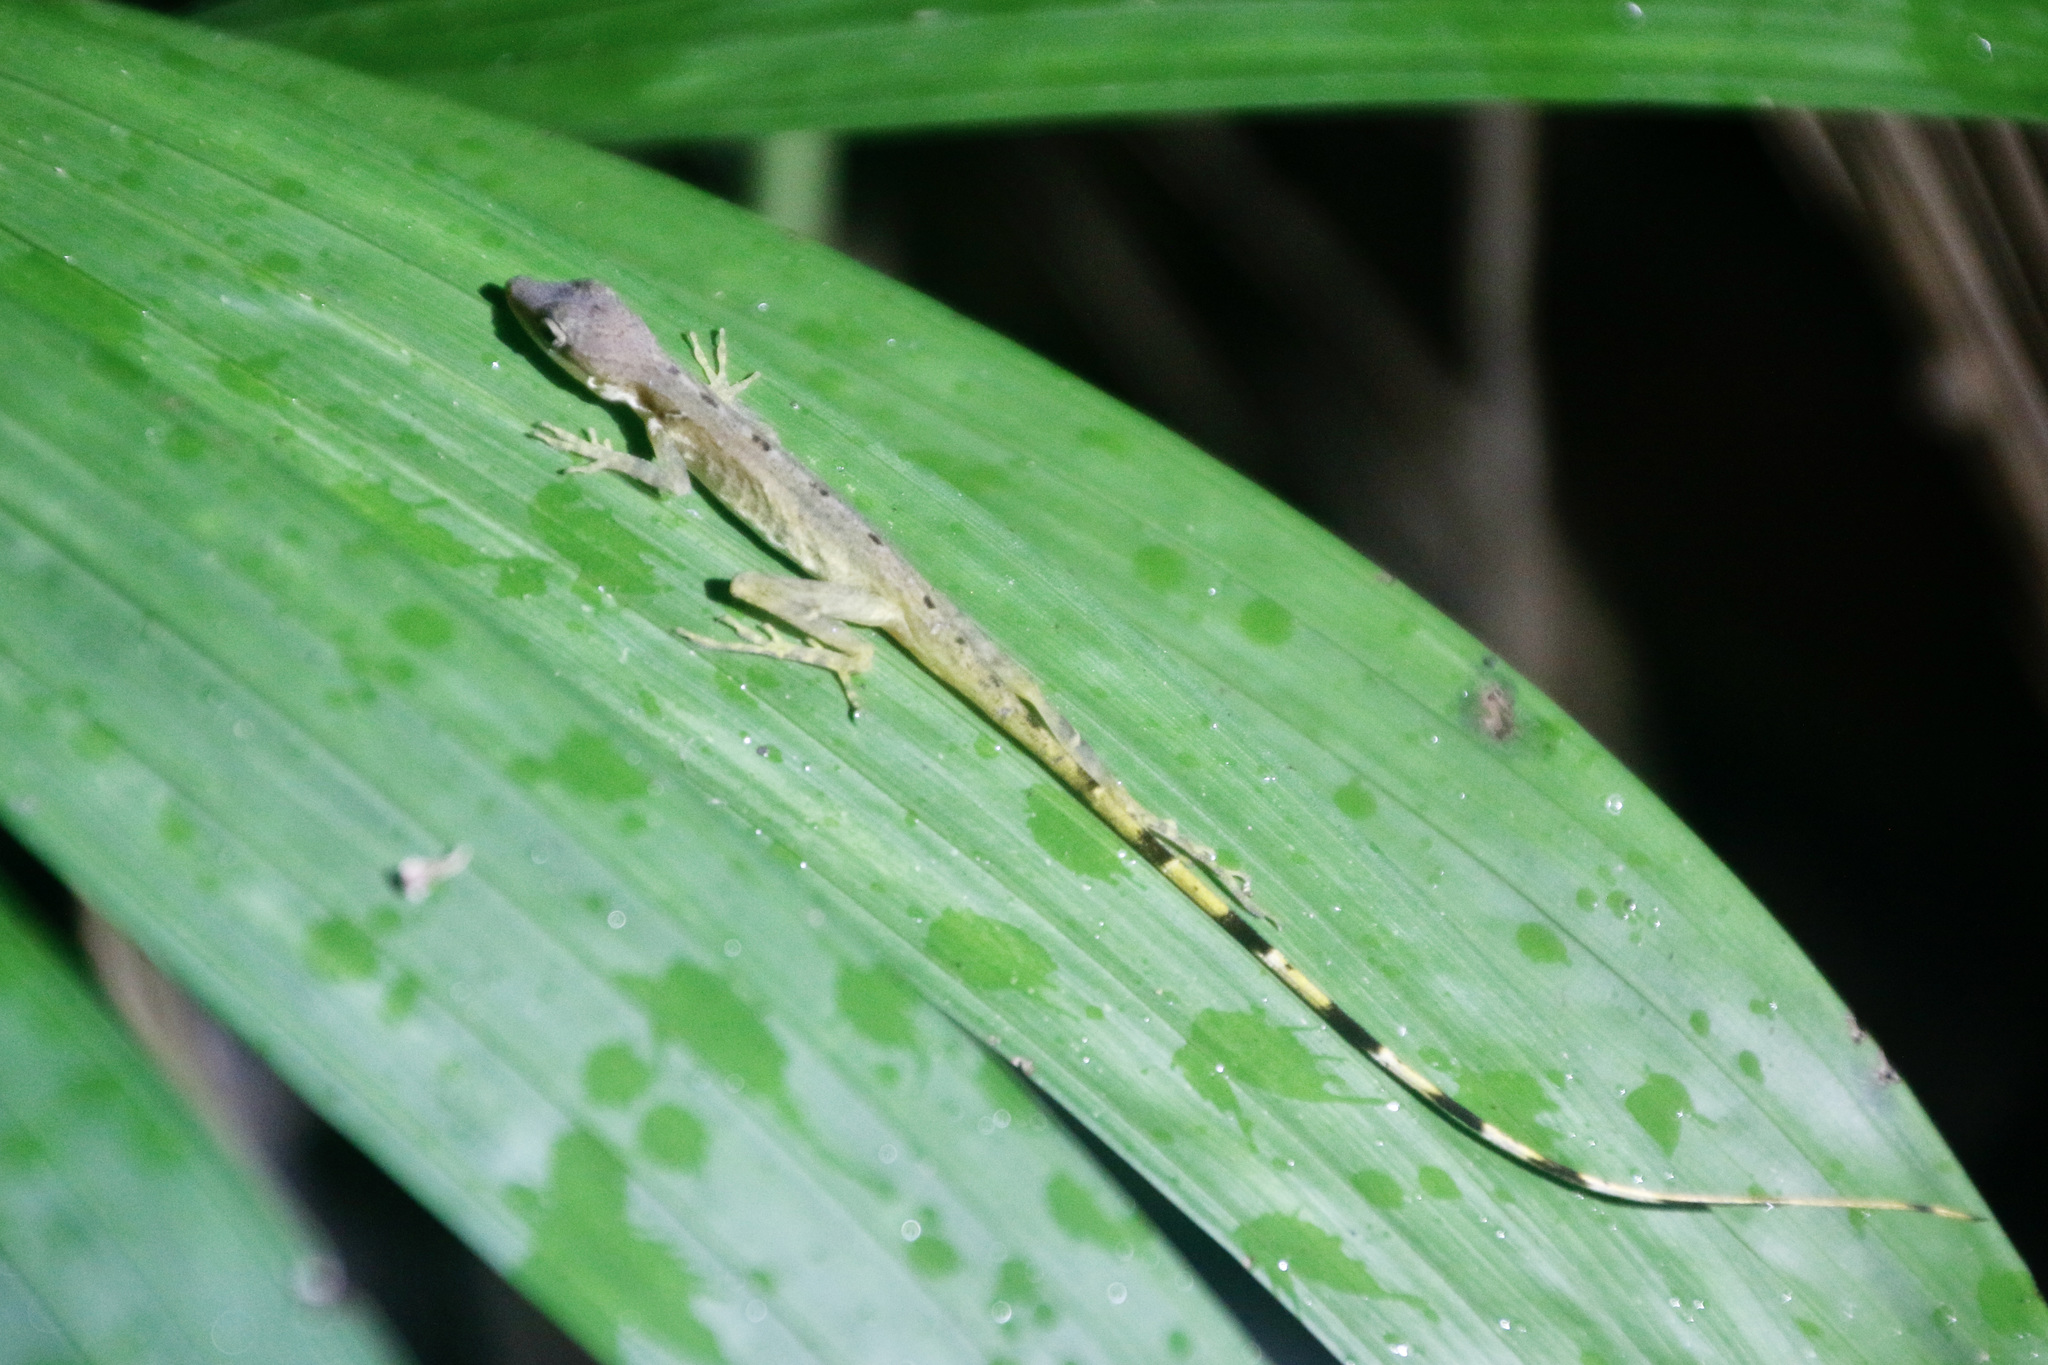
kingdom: Animalia
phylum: Chordata
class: Squamata
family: Dactyloidae
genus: Anolis
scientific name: Anolis limifrons
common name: Border anole
